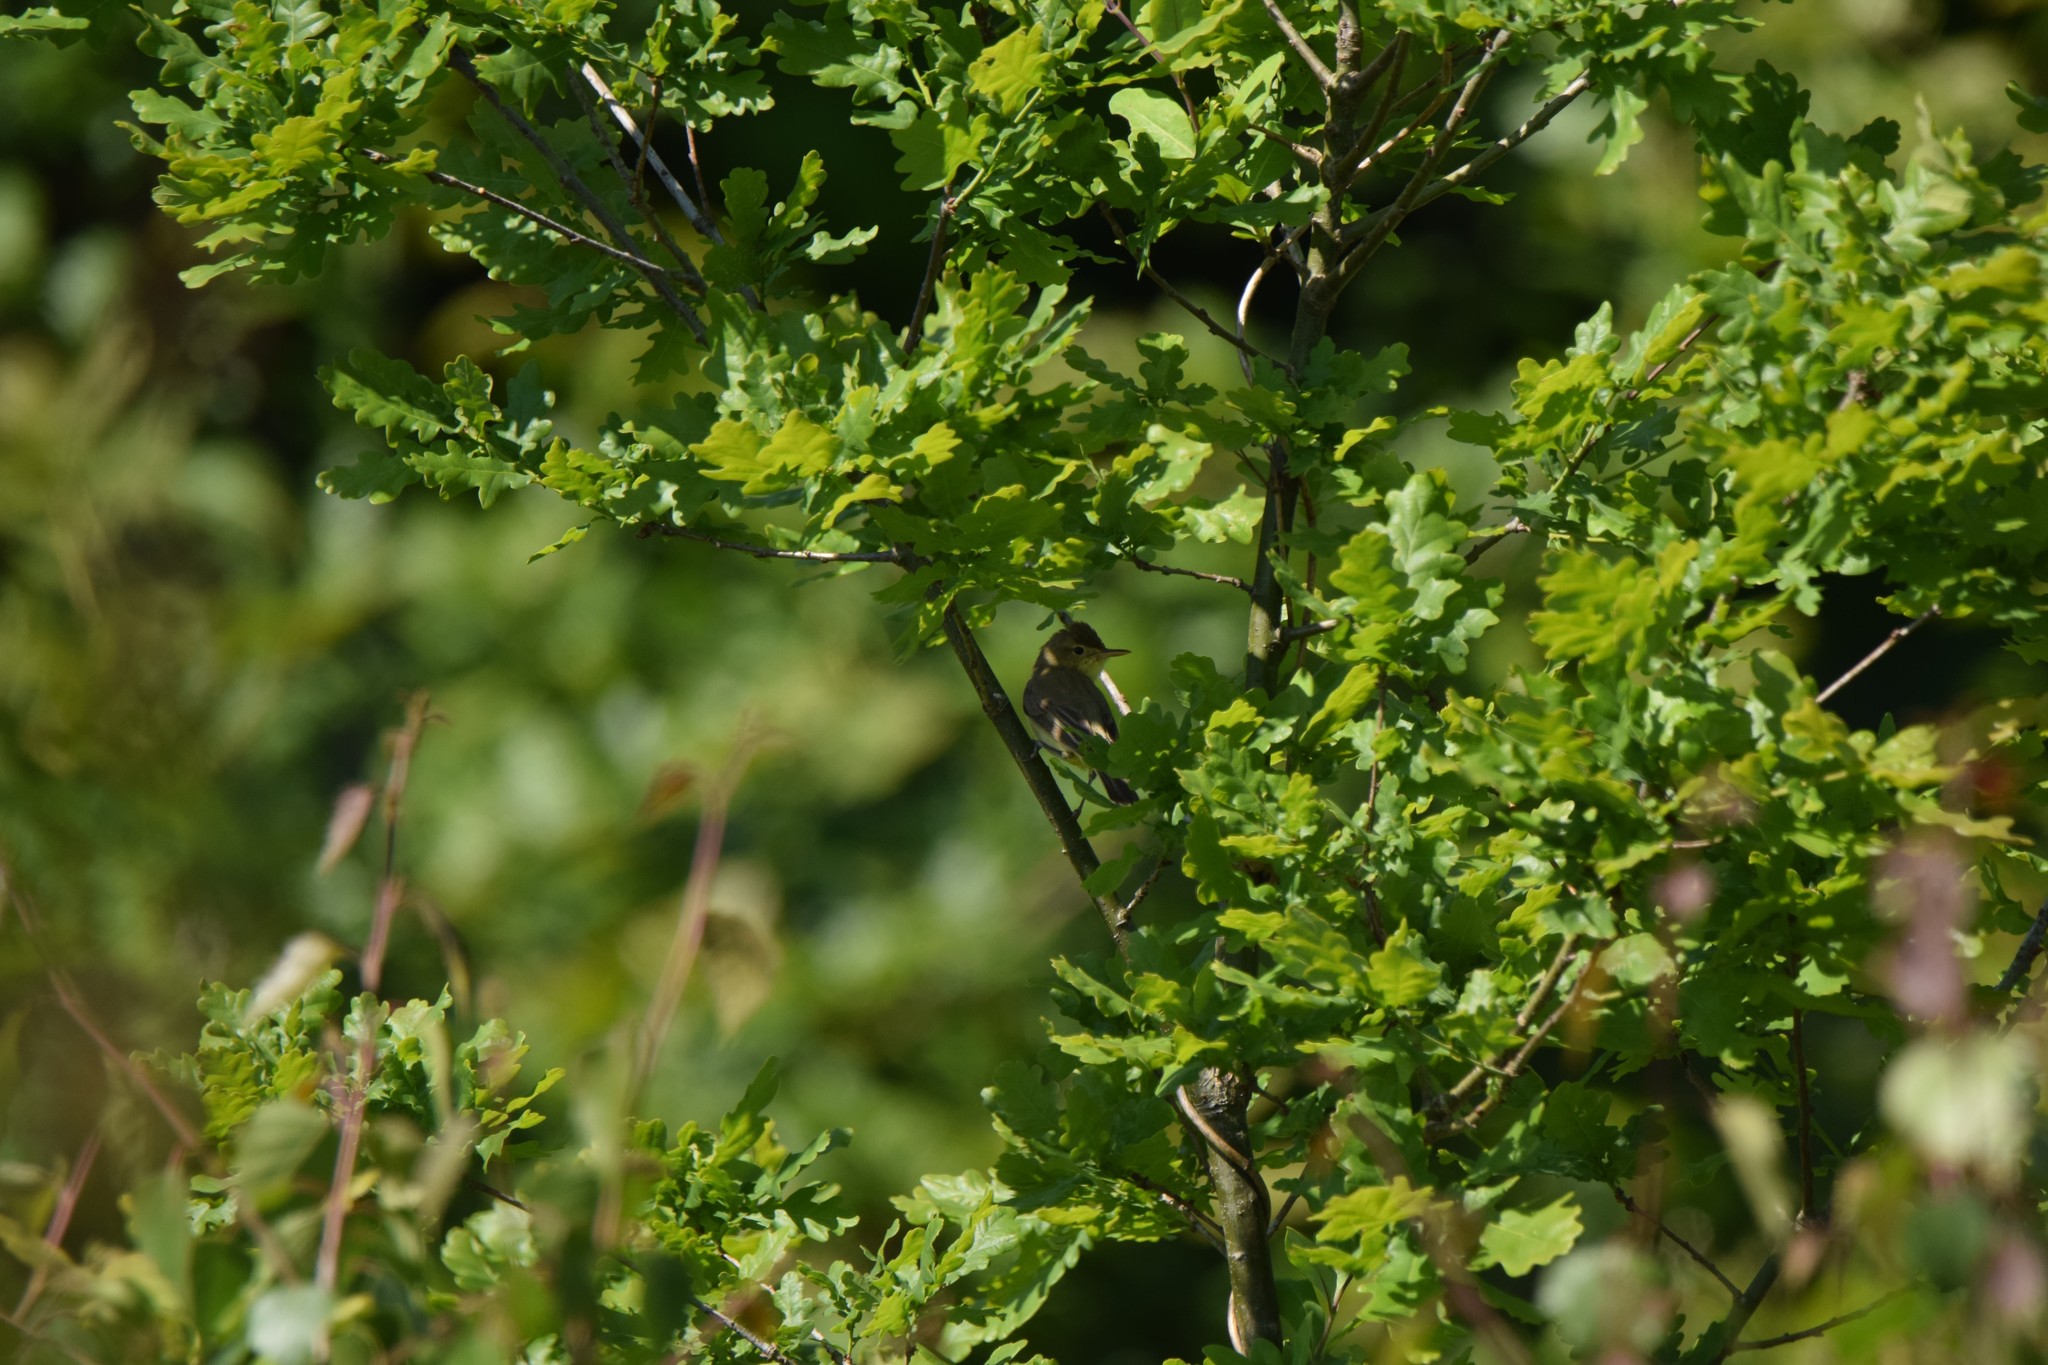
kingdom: Animalia
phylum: Chordata
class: Aves
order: Passeriformes
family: Acrocephalidae
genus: Hippolais
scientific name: Hippolais polyglotta
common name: Melodious warbler
